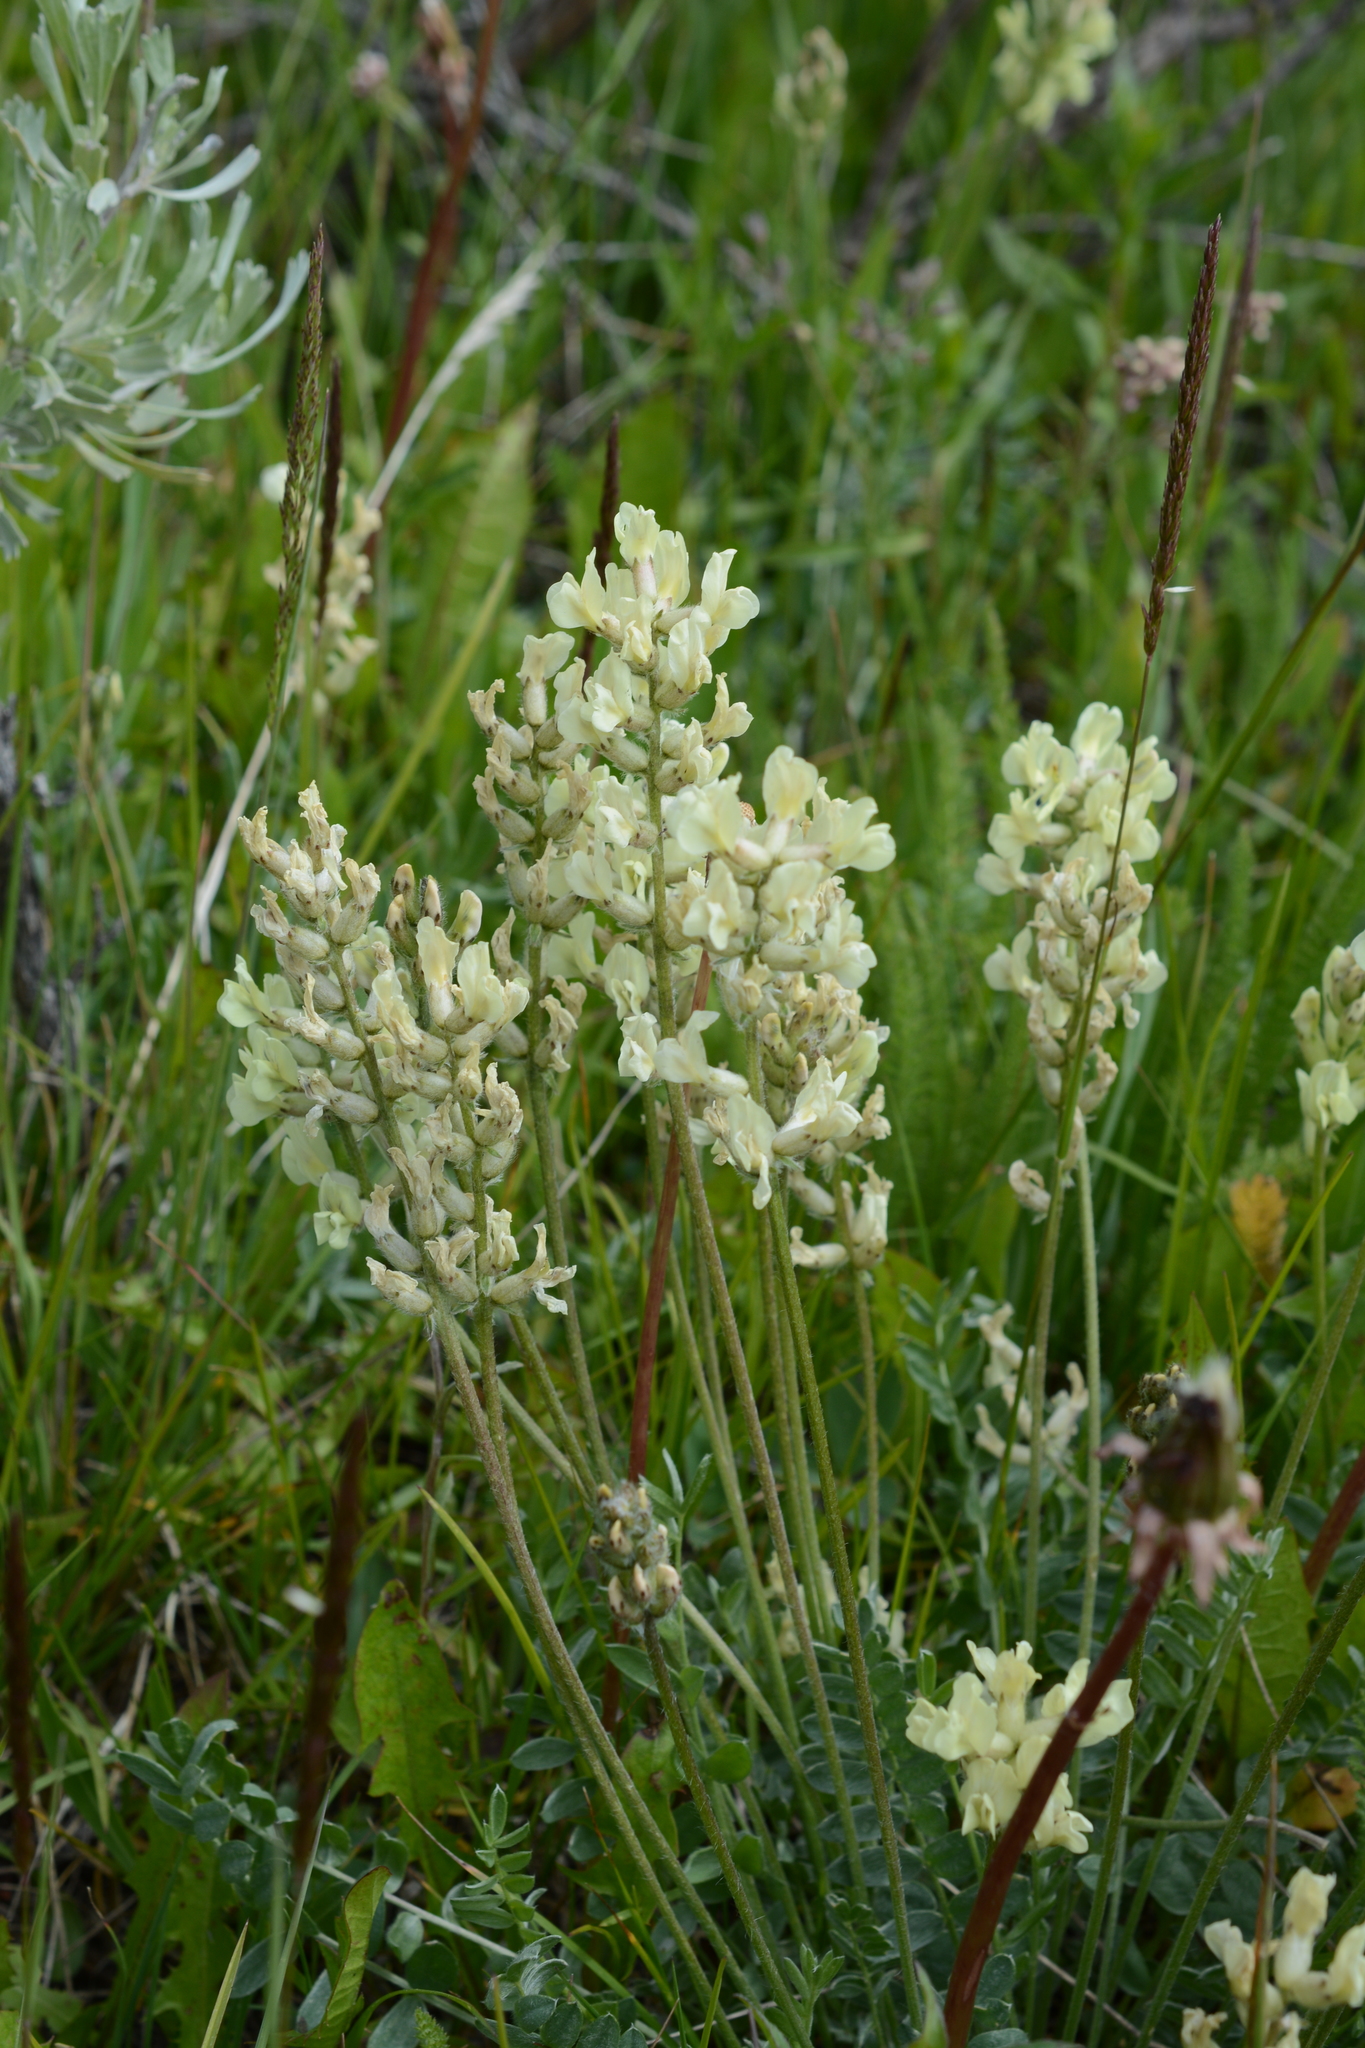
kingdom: Plantae
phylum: Tracheophyta
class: Magnoliopsida
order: Fabales
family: Fabaceae
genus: Oxytropis
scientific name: Oxytropis campestris
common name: Field locoweed
